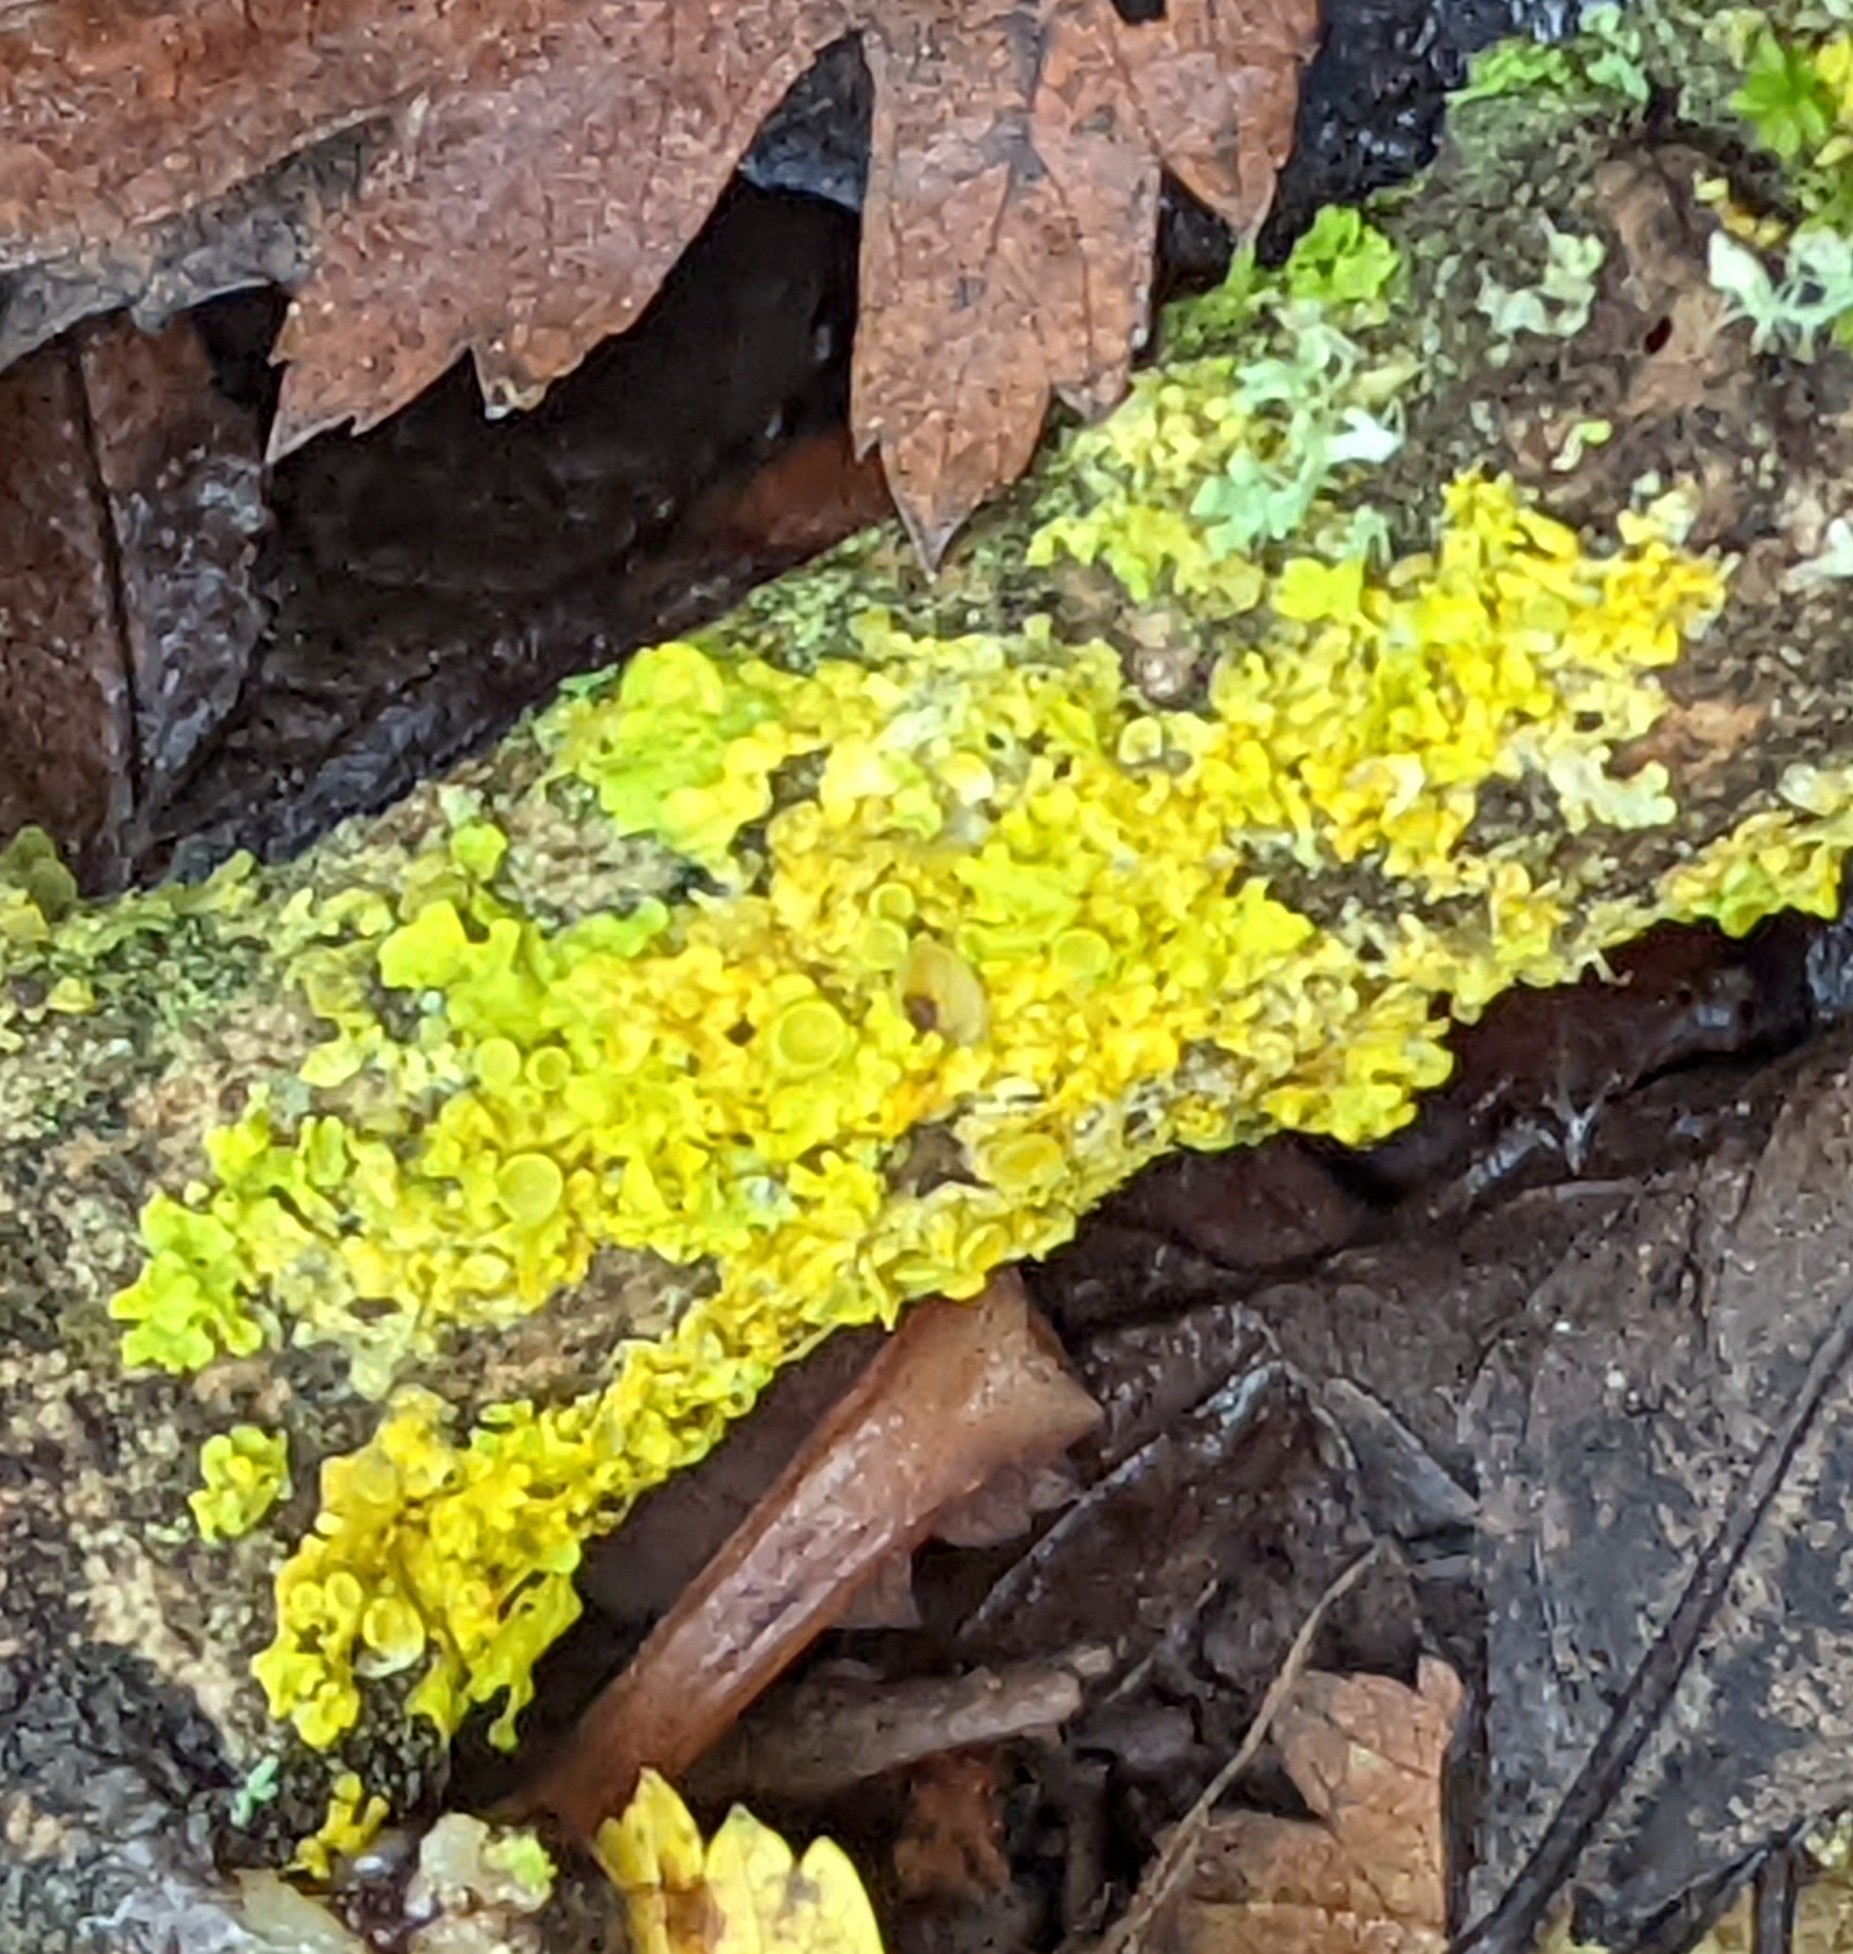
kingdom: Fungi
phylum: Ascomycota
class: Lecanoromycetes
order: Teloschistales
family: Teloschistaceae
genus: Xanthoria
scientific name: Xanthoria parietina
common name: Common orange lichen
